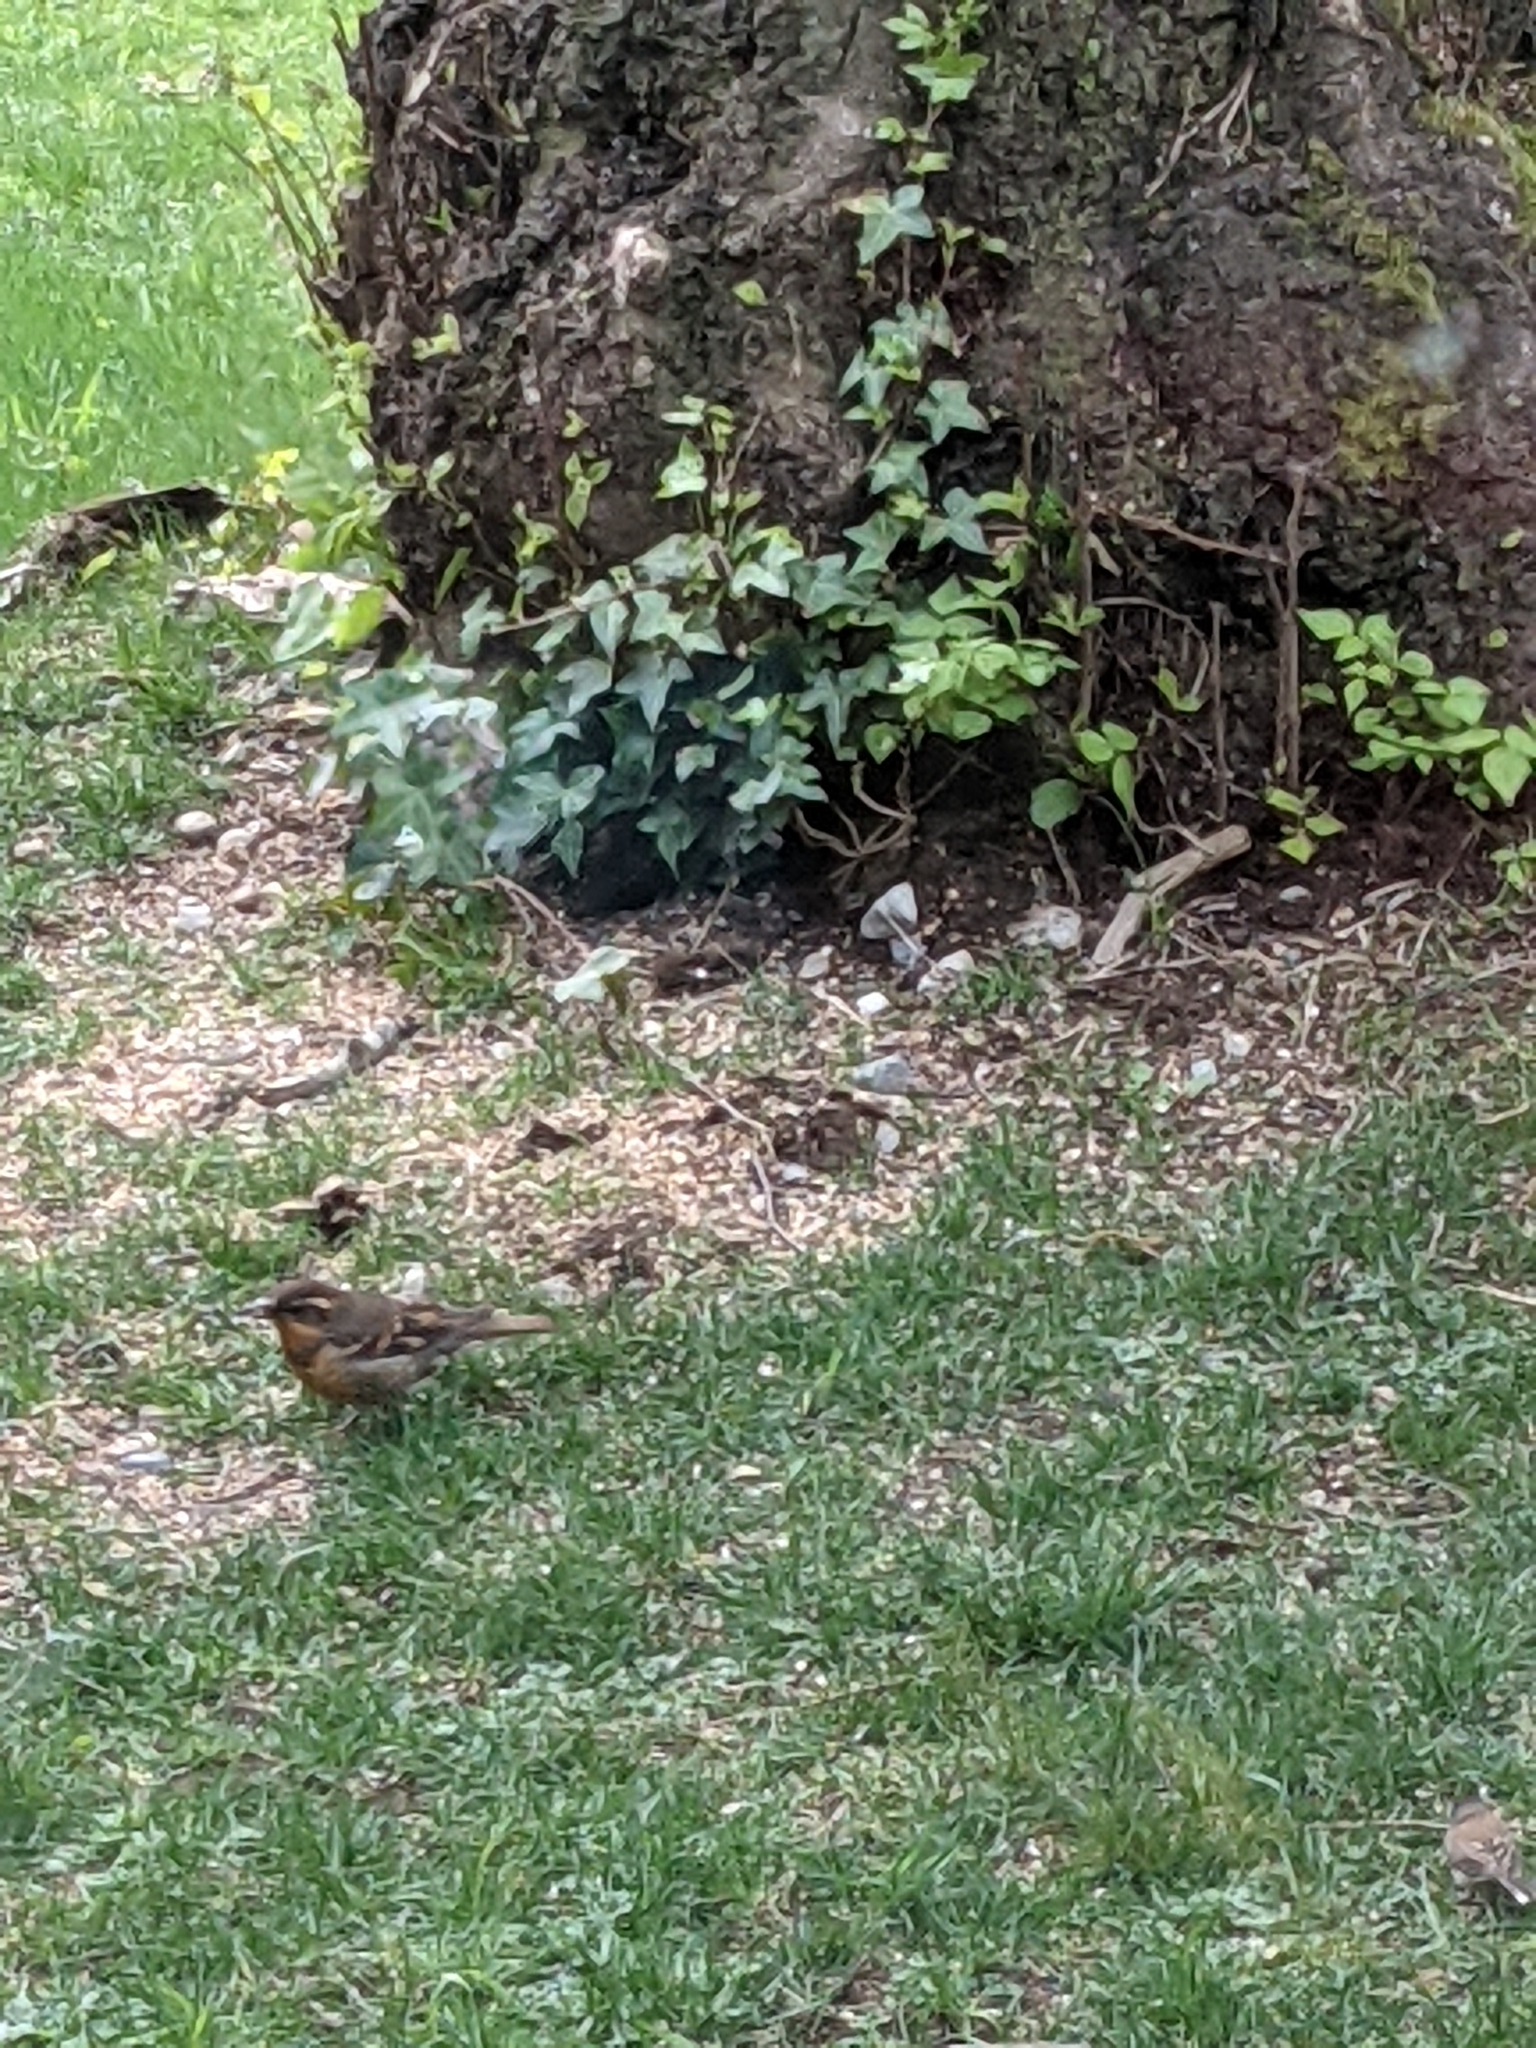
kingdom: Animalia
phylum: Chordata
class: Aves
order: Passeriformes
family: Turdidae
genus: Ixoreus
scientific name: Ixoreus naevius
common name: Varied thrush
